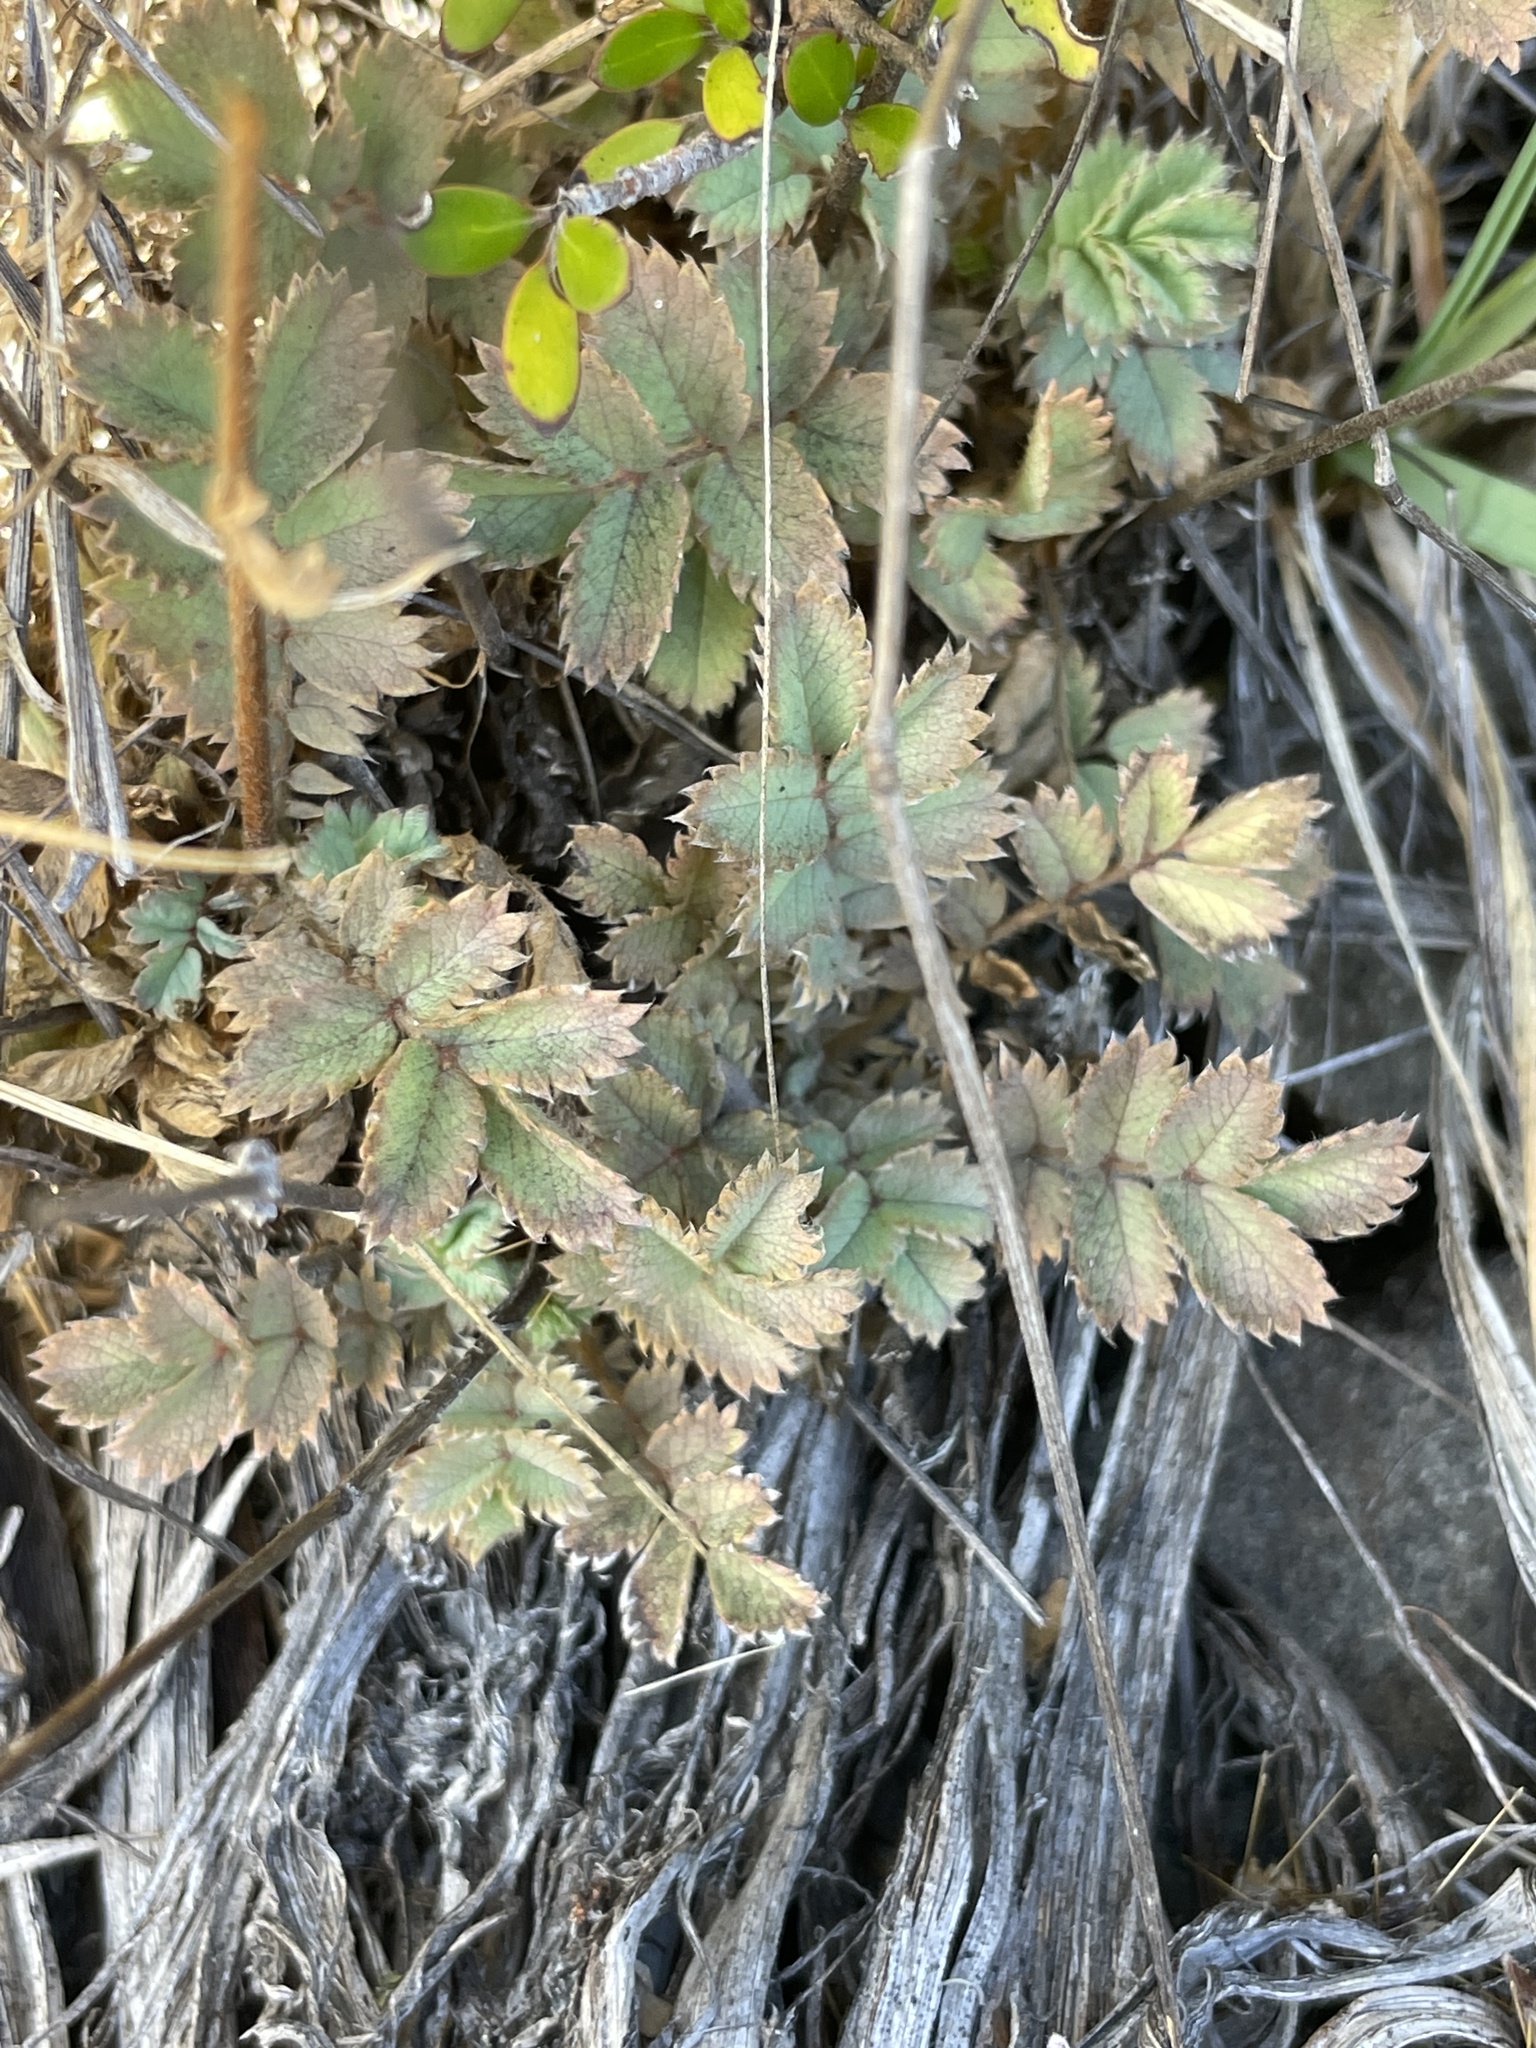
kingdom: Plantae
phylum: Tracheophyta
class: Magnoliopsida
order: Rosales
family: Rosaceae
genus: Acaena
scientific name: Acaena caesiiglauca
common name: Glaucous pirri-pirri-bur
